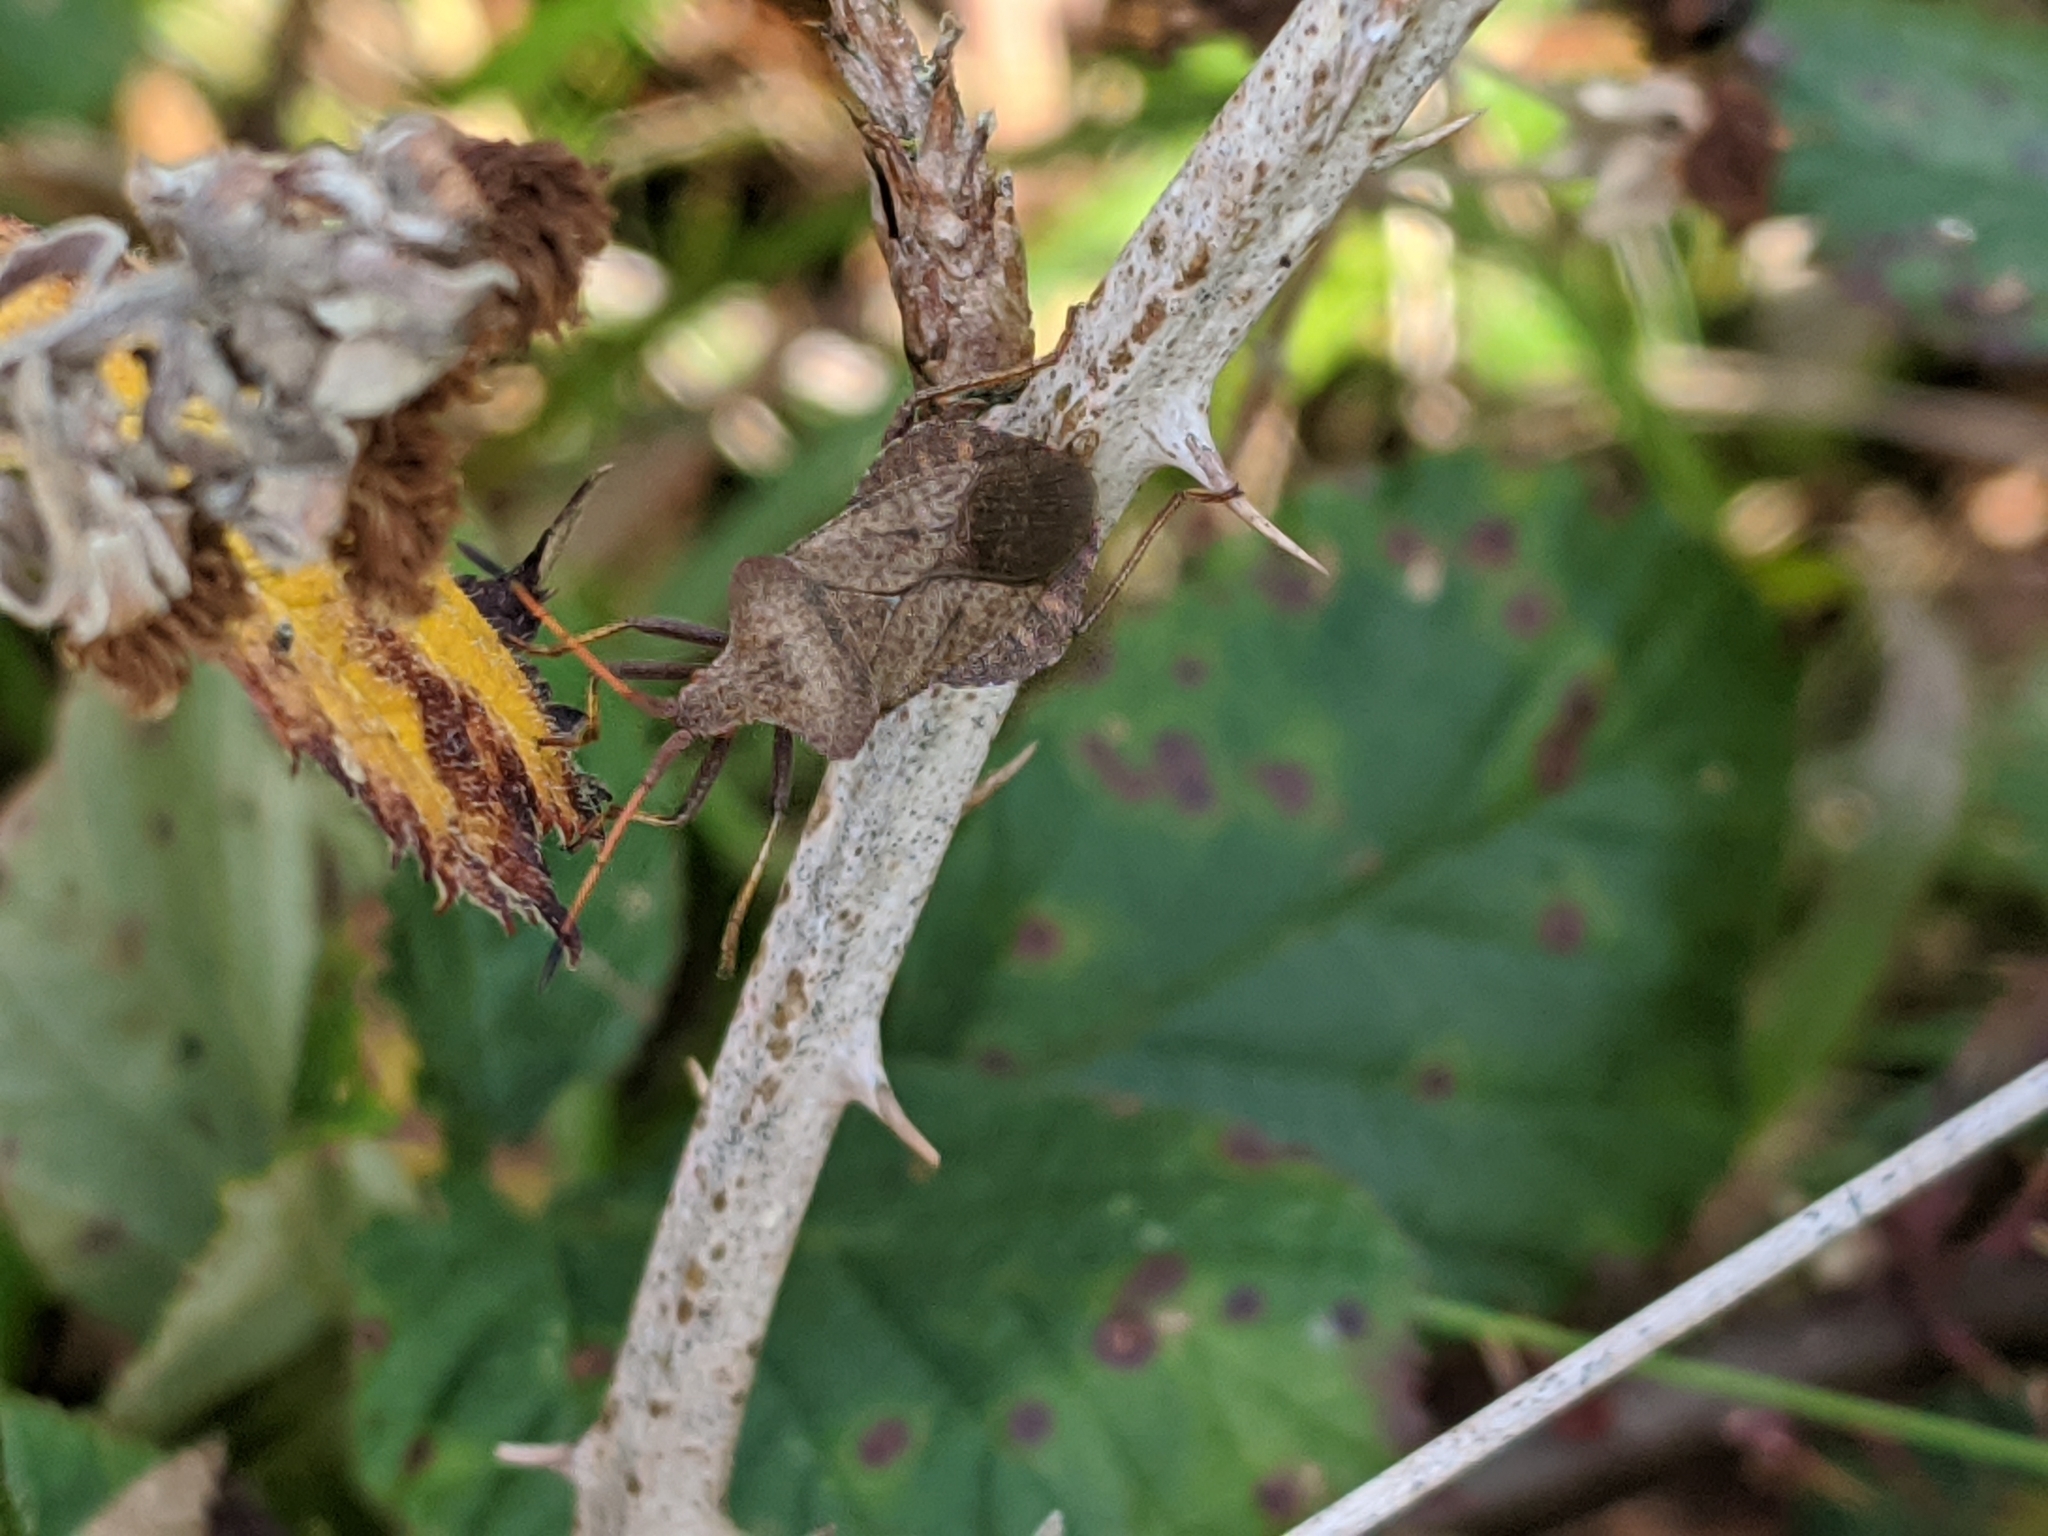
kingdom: Animalia
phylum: Arthropoda
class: Insecta
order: Hemiptera
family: Coreidae
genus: Coreus
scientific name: Coreus marginatus
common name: Dock bug
